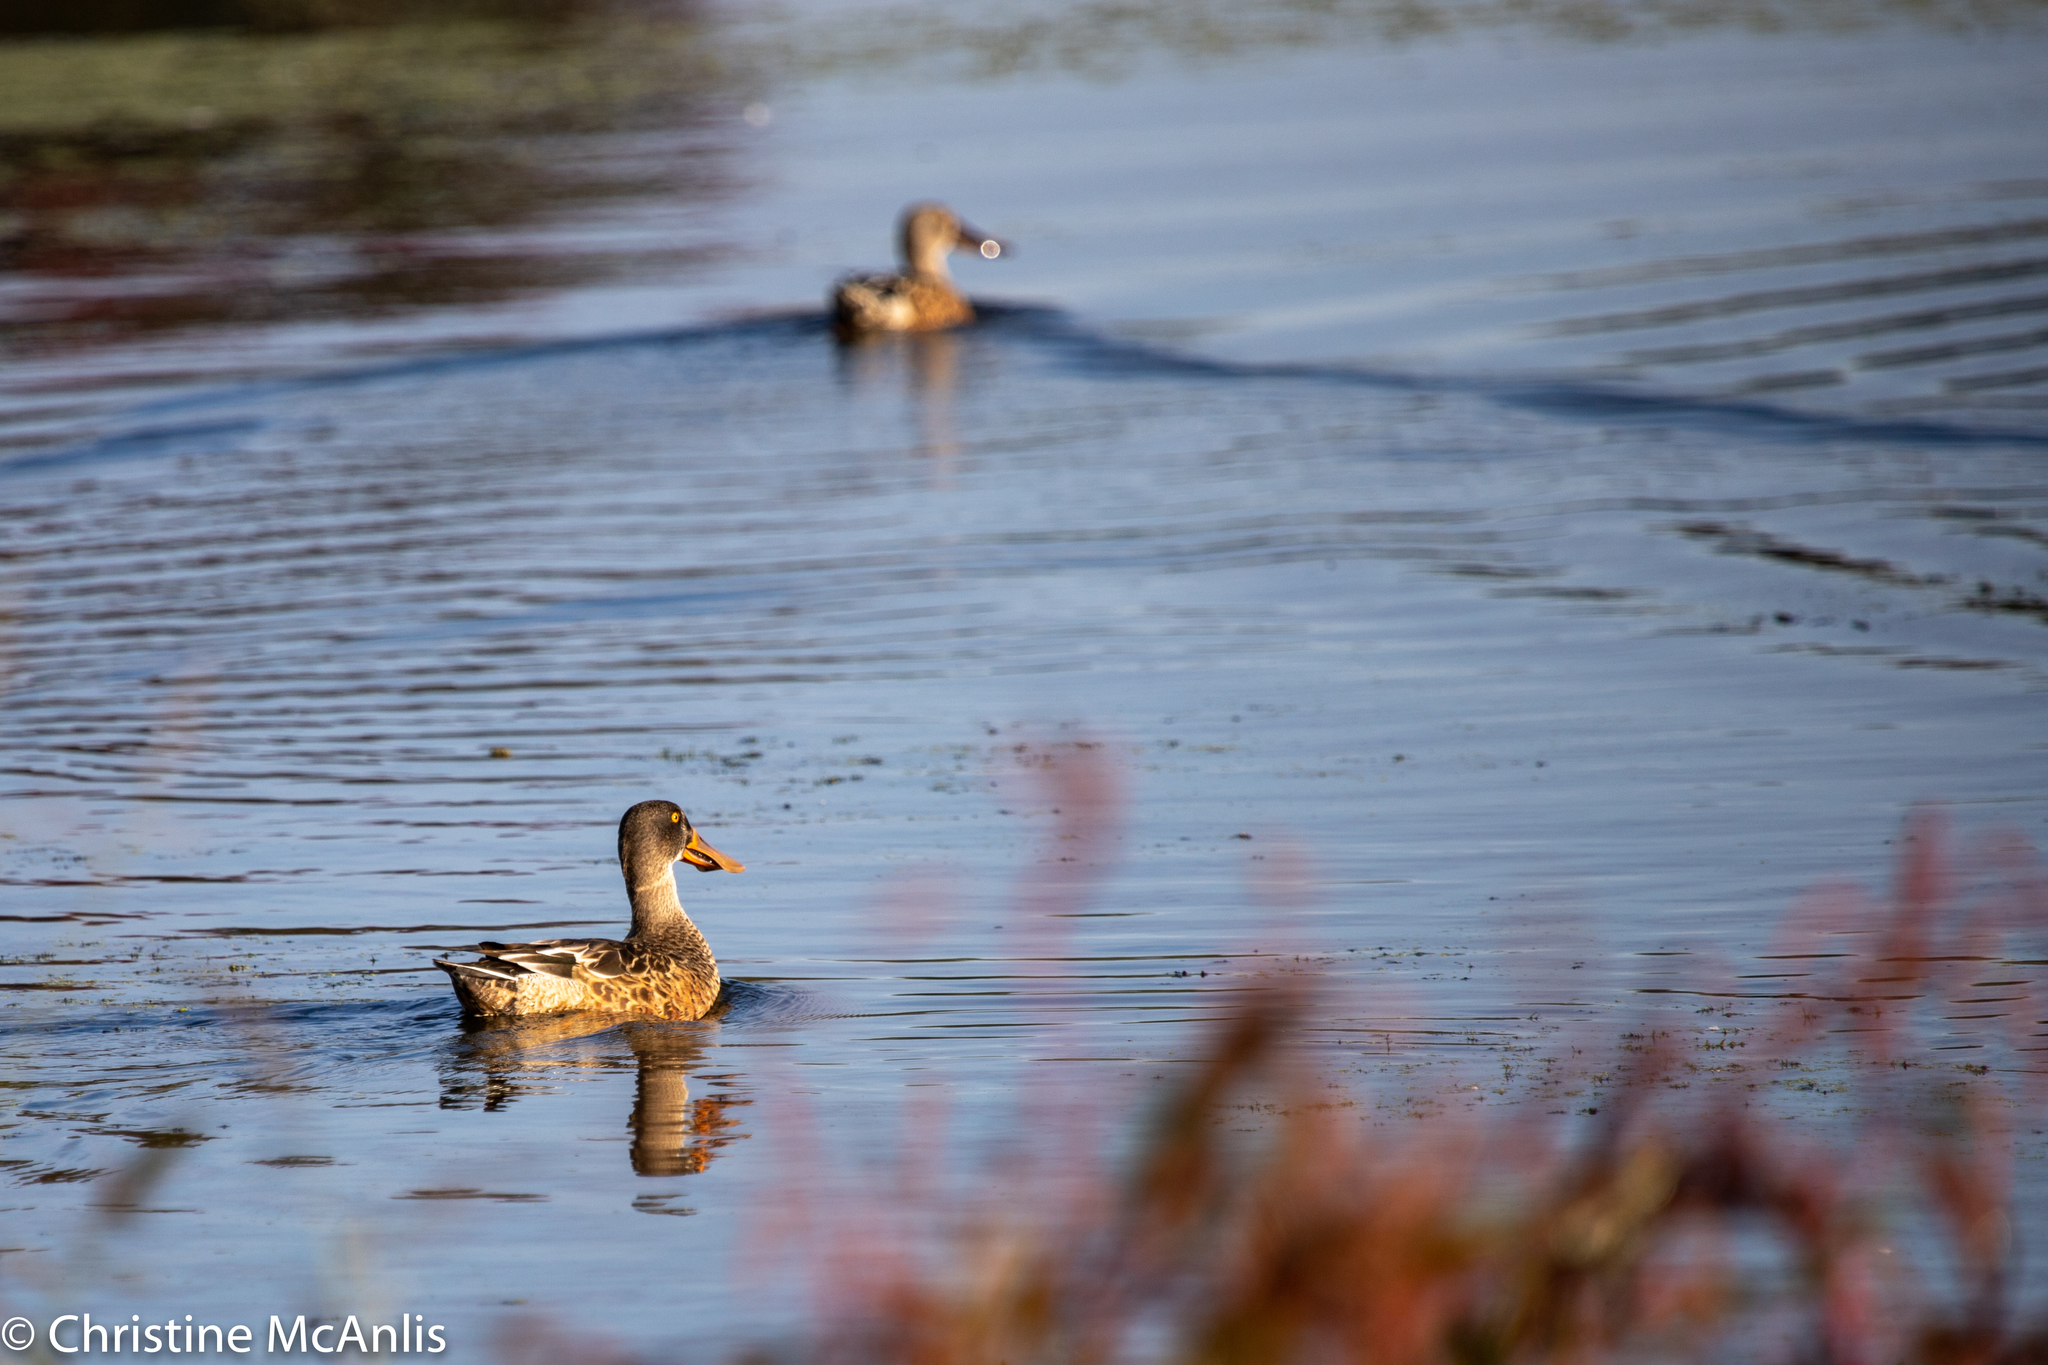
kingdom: Animalia
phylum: Chordata
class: Aves
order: Anseriformes
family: Anatidae
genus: Spatula
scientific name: Spatula clypeata
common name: Northern shoveler
